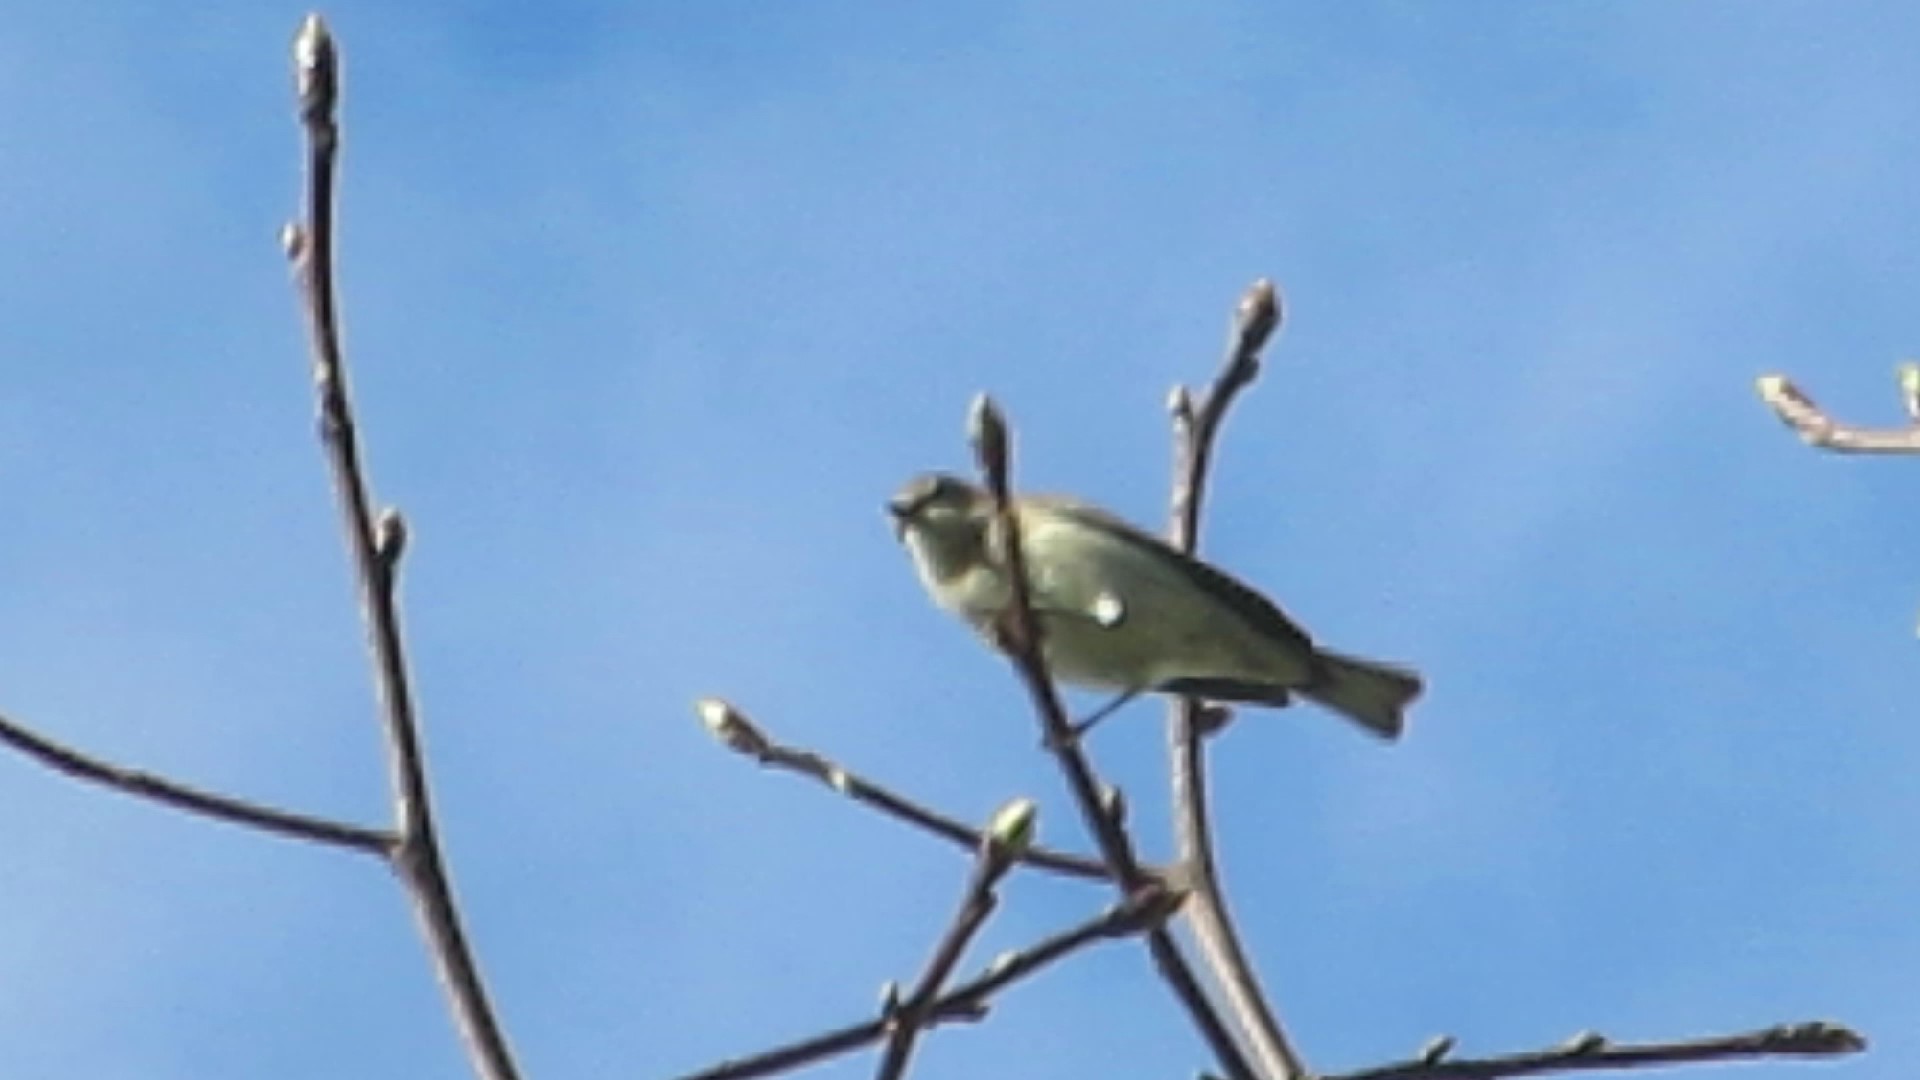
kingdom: Animalia
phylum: Chordata
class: Aves
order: Passeriformes
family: Parulidae
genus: Setophaga
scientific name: Setophaga coronata
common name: Myrtle warbler
